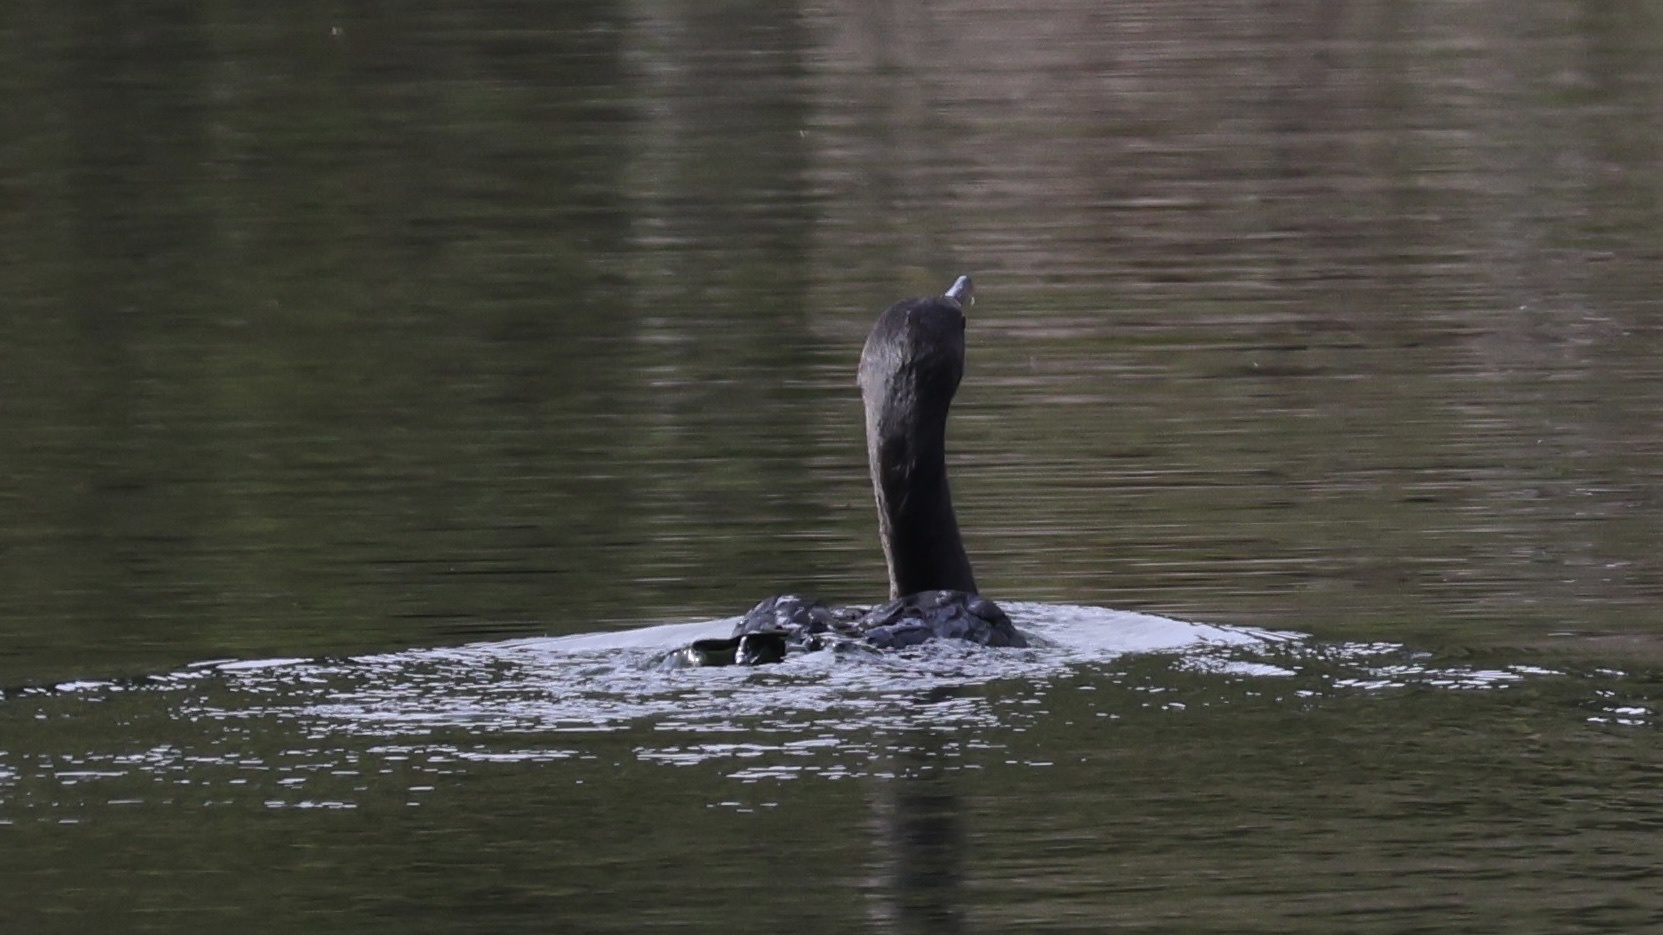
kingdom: Animalia
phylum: Chordata
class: Aves
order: Suliformes
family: Phalacrocoracidae
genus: Phalacrocorax
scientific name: Phalacrocorax auritus
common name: Double-crested cormorant
